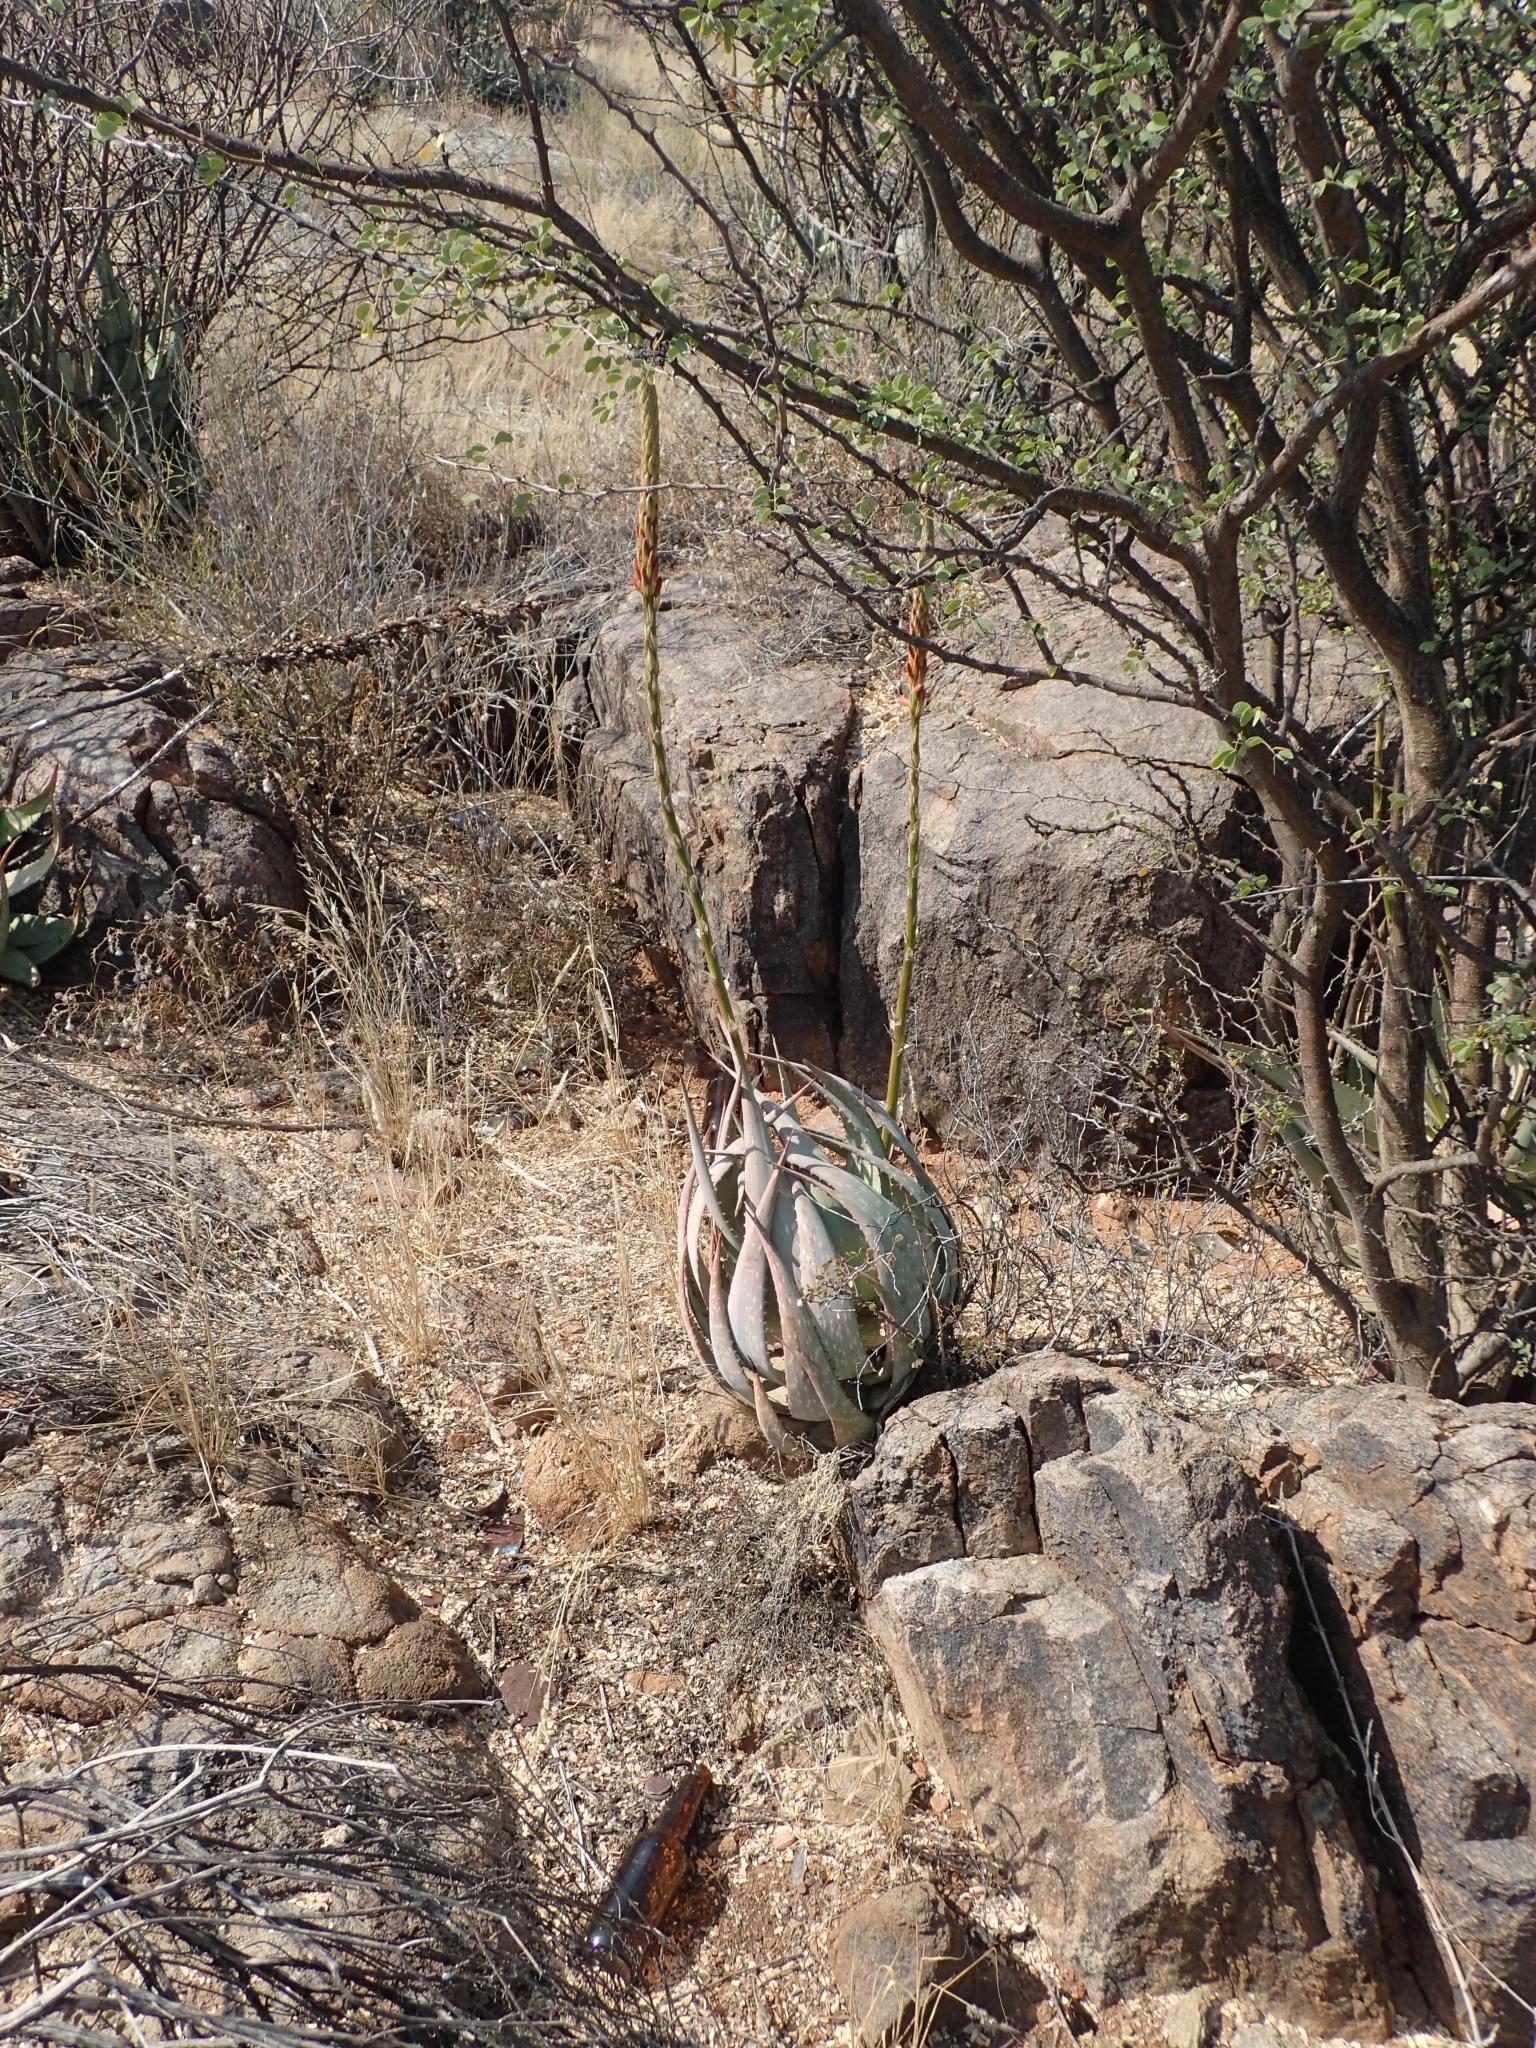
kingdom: Plantae
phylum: Tracheophyta
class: Liliopsida
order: Asparagales
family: Asphodelaceae
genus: Aloe
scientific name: Aloe gariepensis
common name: Orange river aloe
